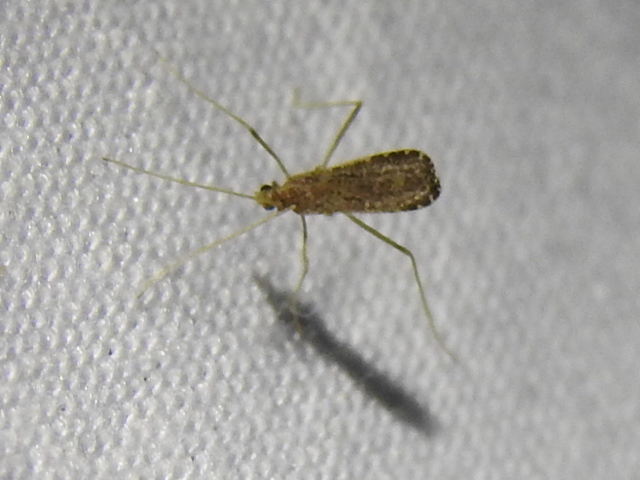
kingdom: Animalia
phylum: Arthropoda
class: Insecta
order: Diptera
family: Limoniidae
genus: Erioptera
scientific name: Erioptera tantilla
